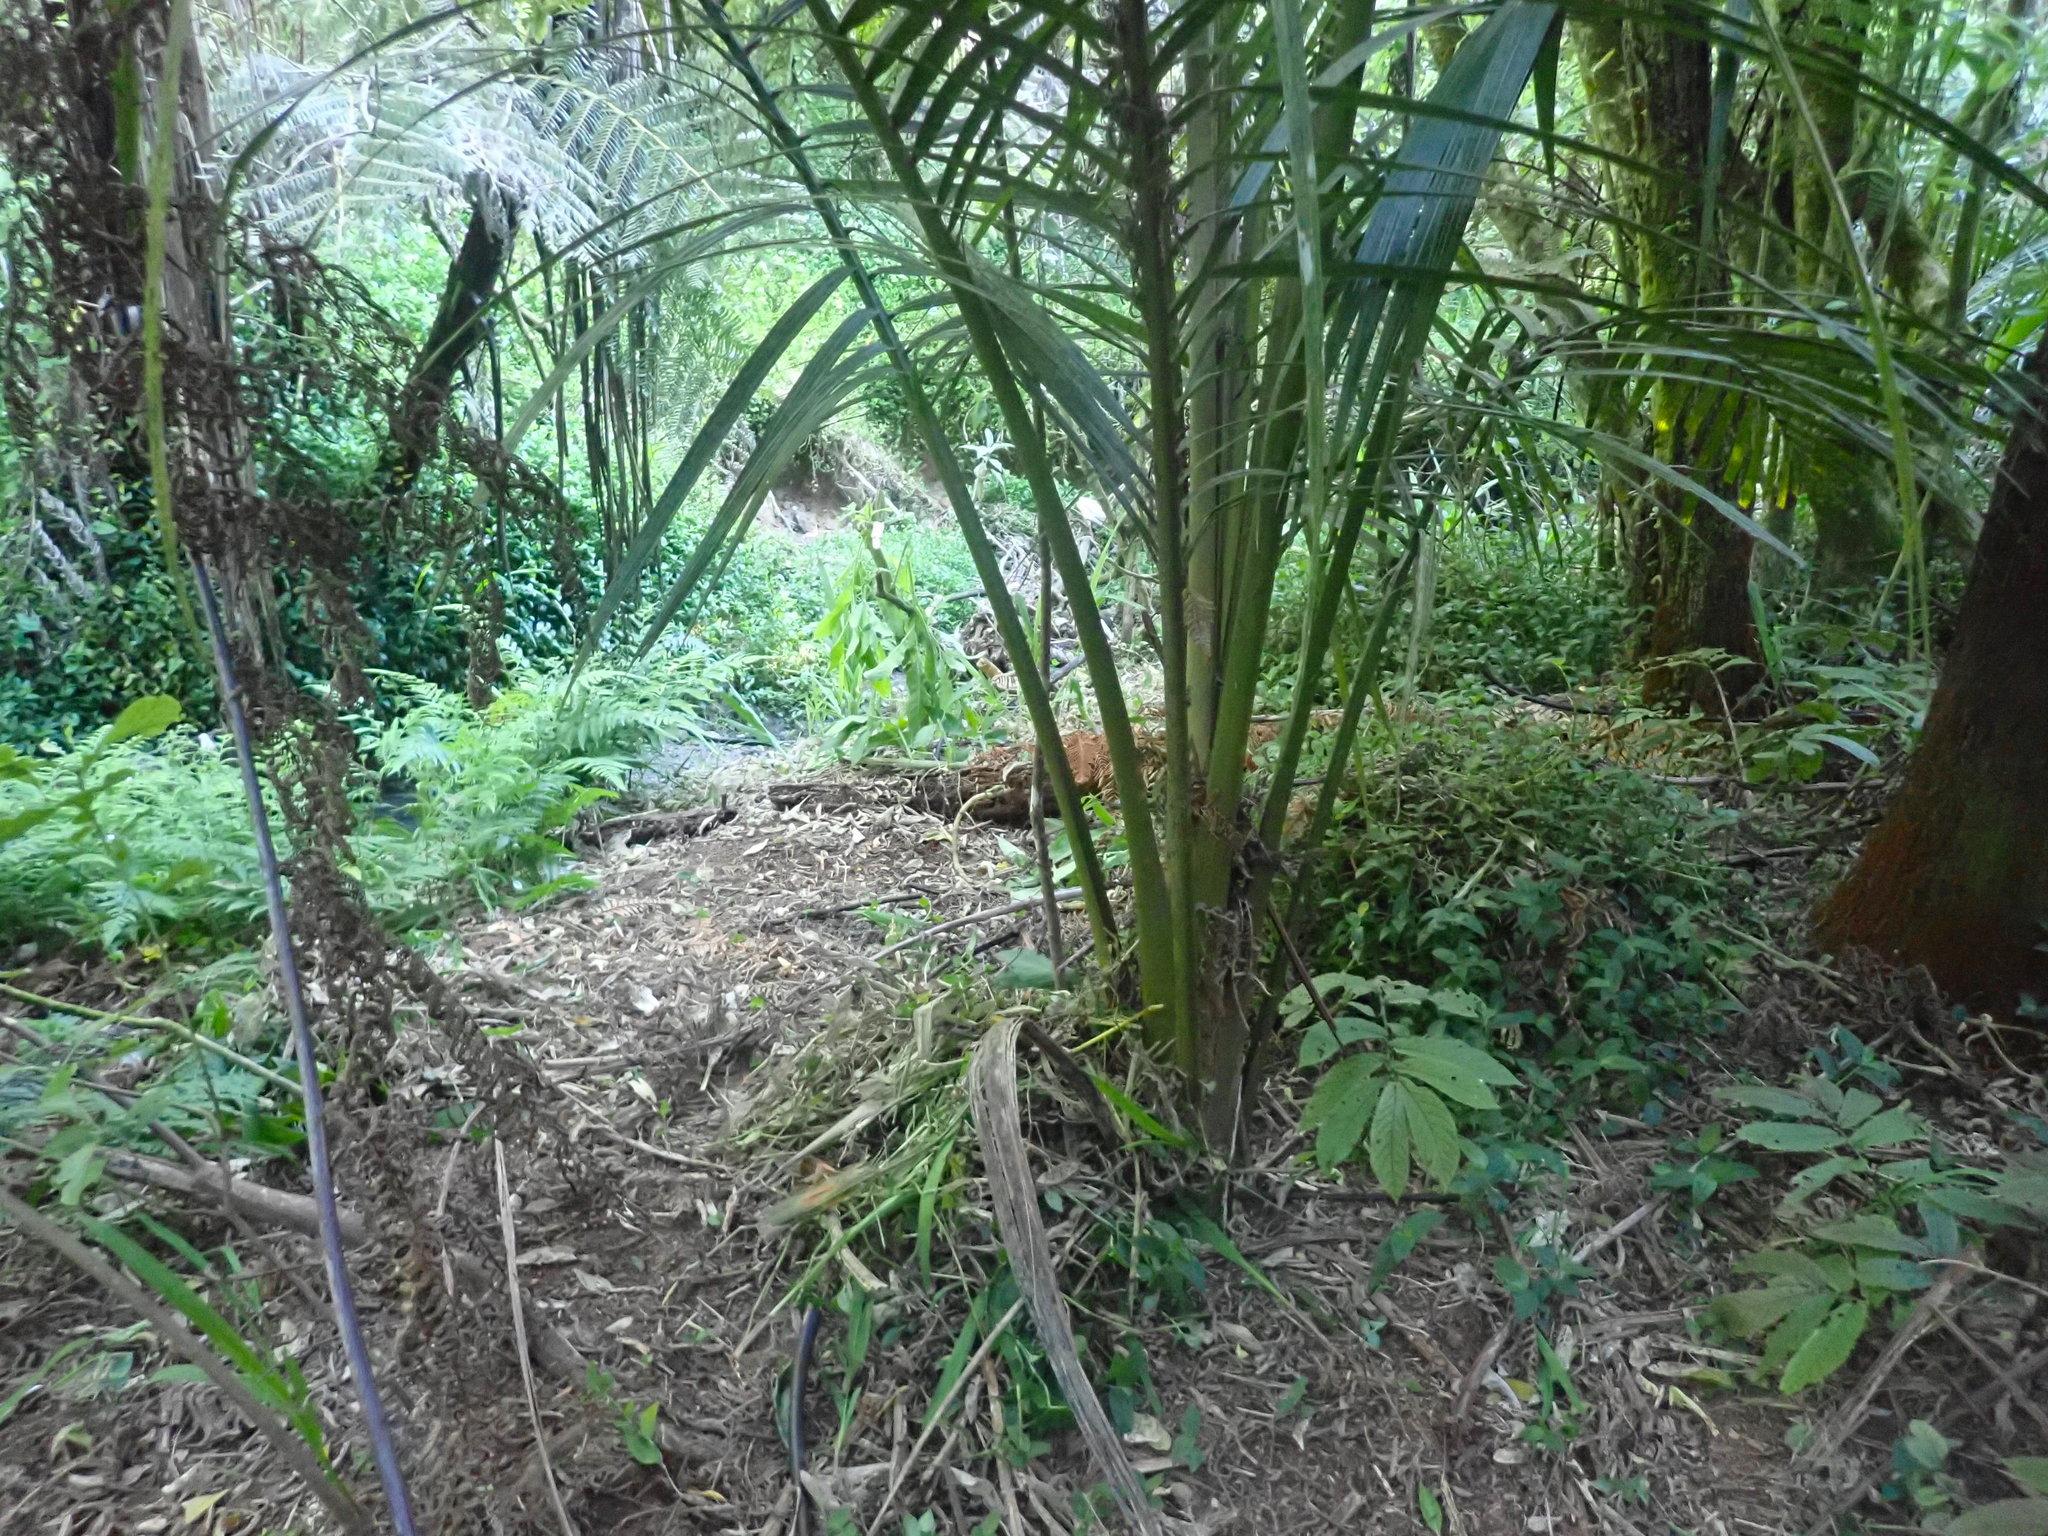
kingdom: Plantae
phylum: Tracheophyta
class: Liliopsida
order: Arecales
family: Arecaceae
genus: Rhopalostylis
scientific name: Rhopalostylis sapida
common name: Feather-duster palm
